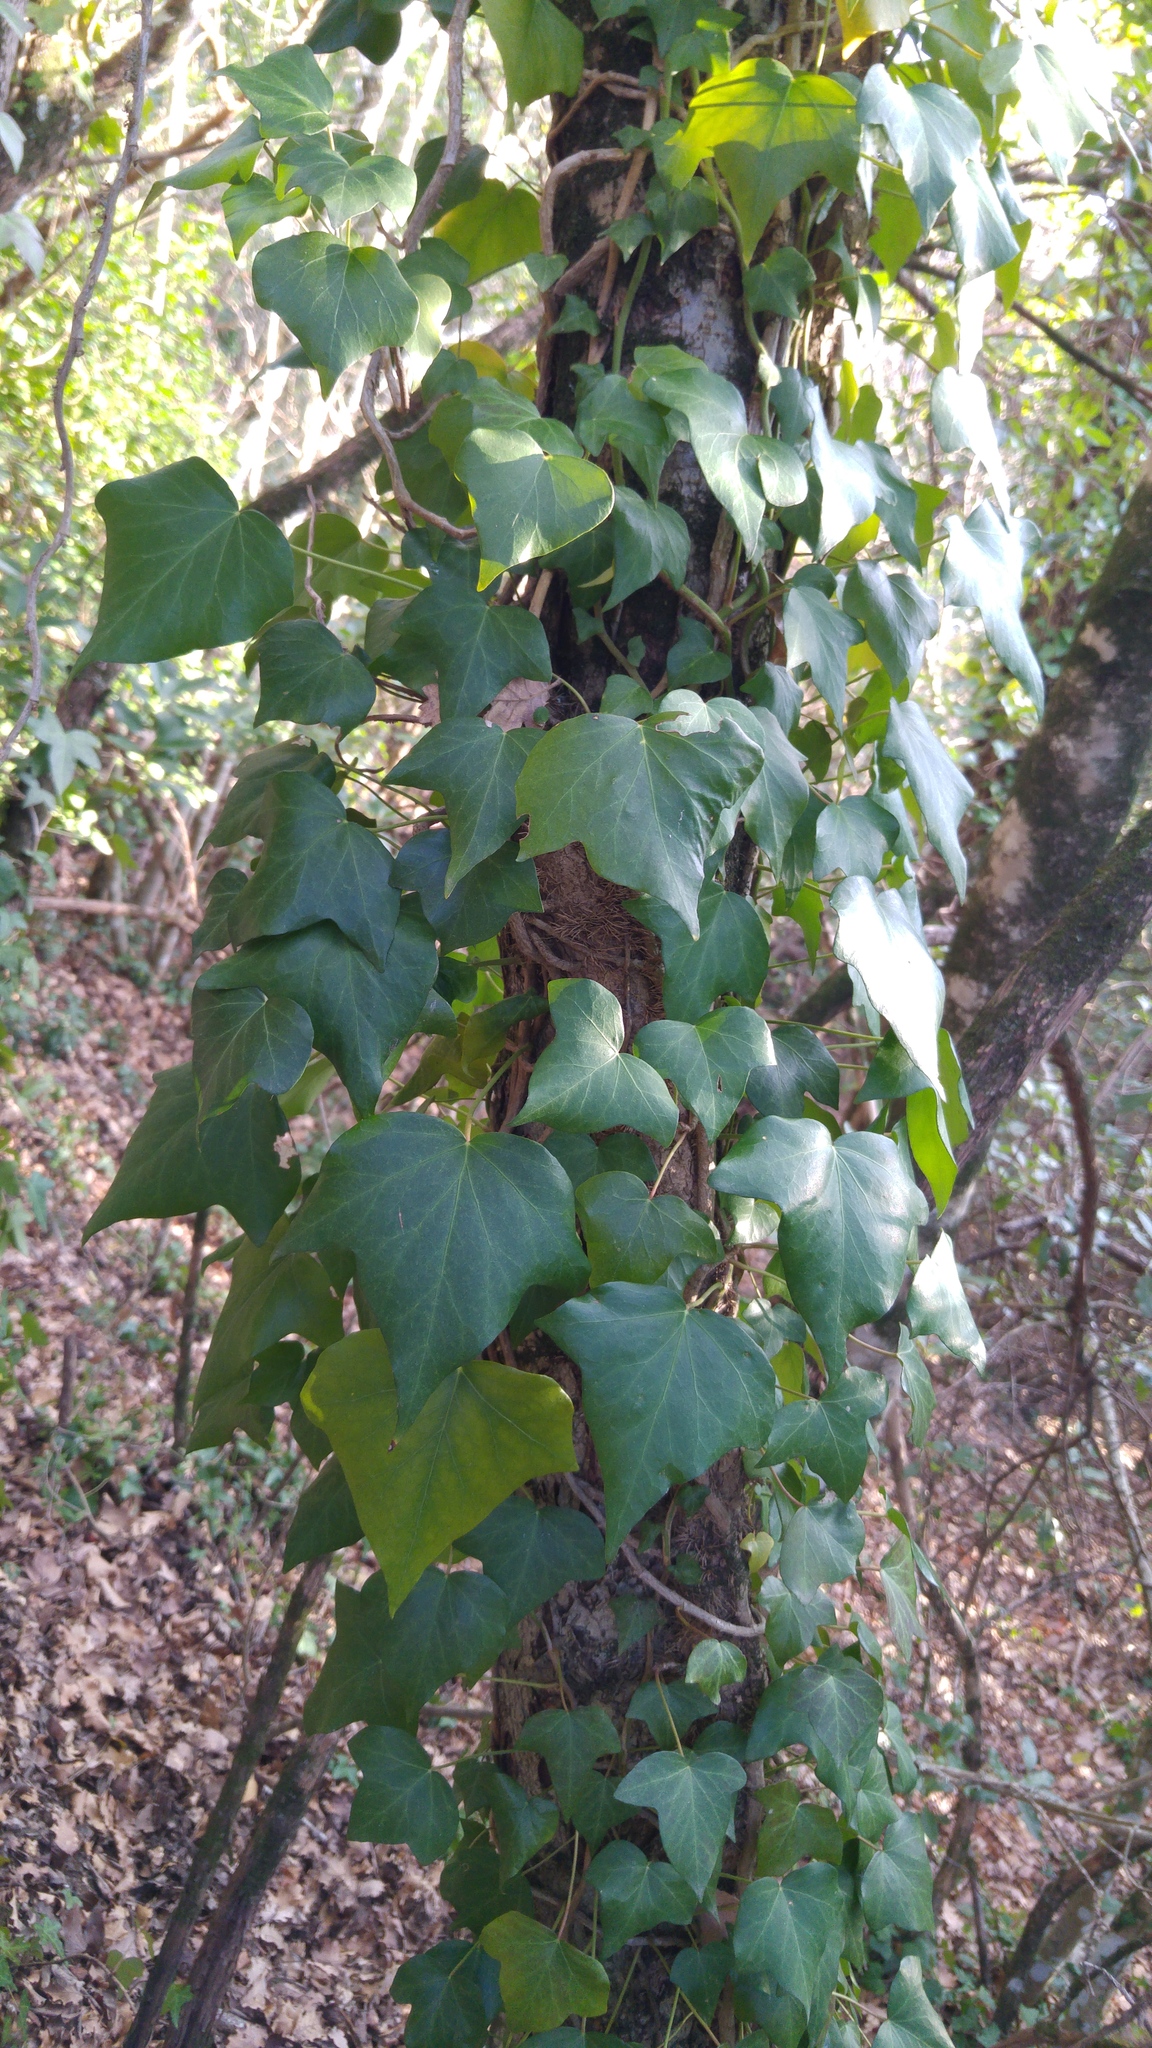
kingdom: Plantae
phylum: Tracheophyta
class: Magnoliopsida
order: Apiales
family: Araliaceae
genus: Hedera
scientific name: Hedera helix
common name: Ivy
